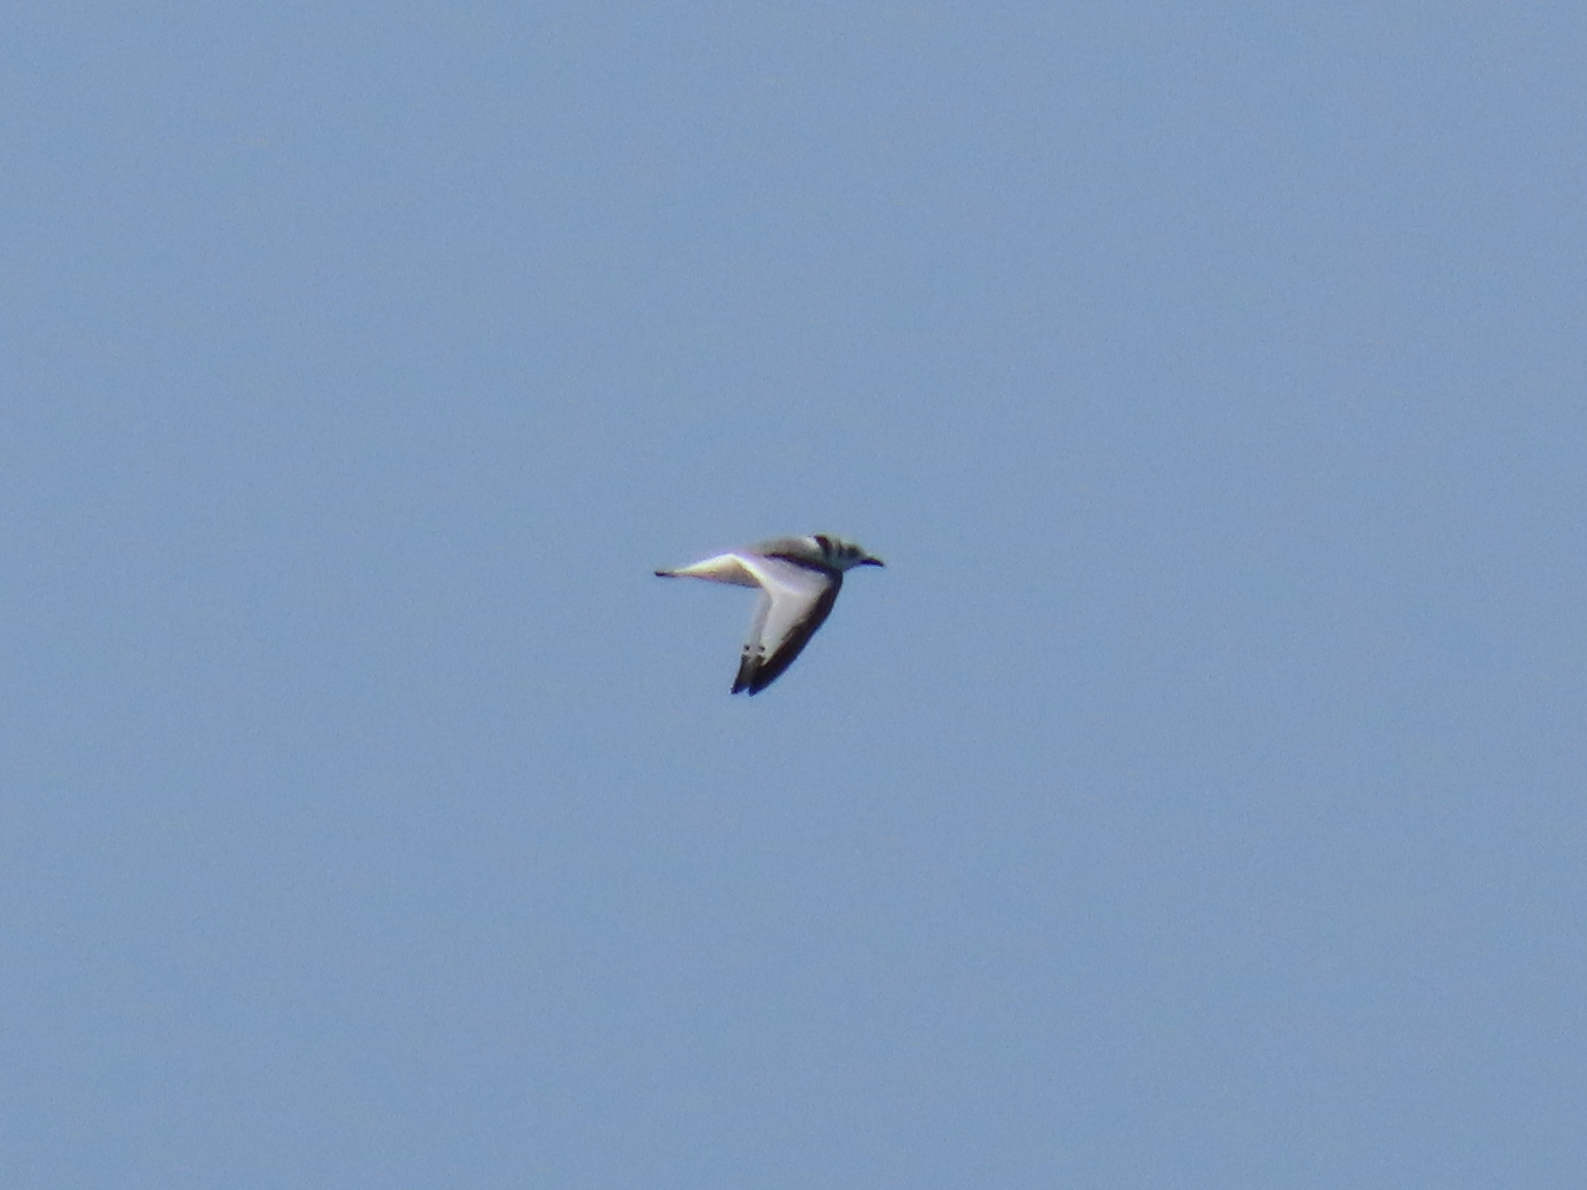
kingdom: Animalia
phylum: Chordata
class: Aves
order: Charadriiformes
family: Laridae
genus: Rissa
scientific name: Rissa tridactyla
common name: Black-legged kittiwake
